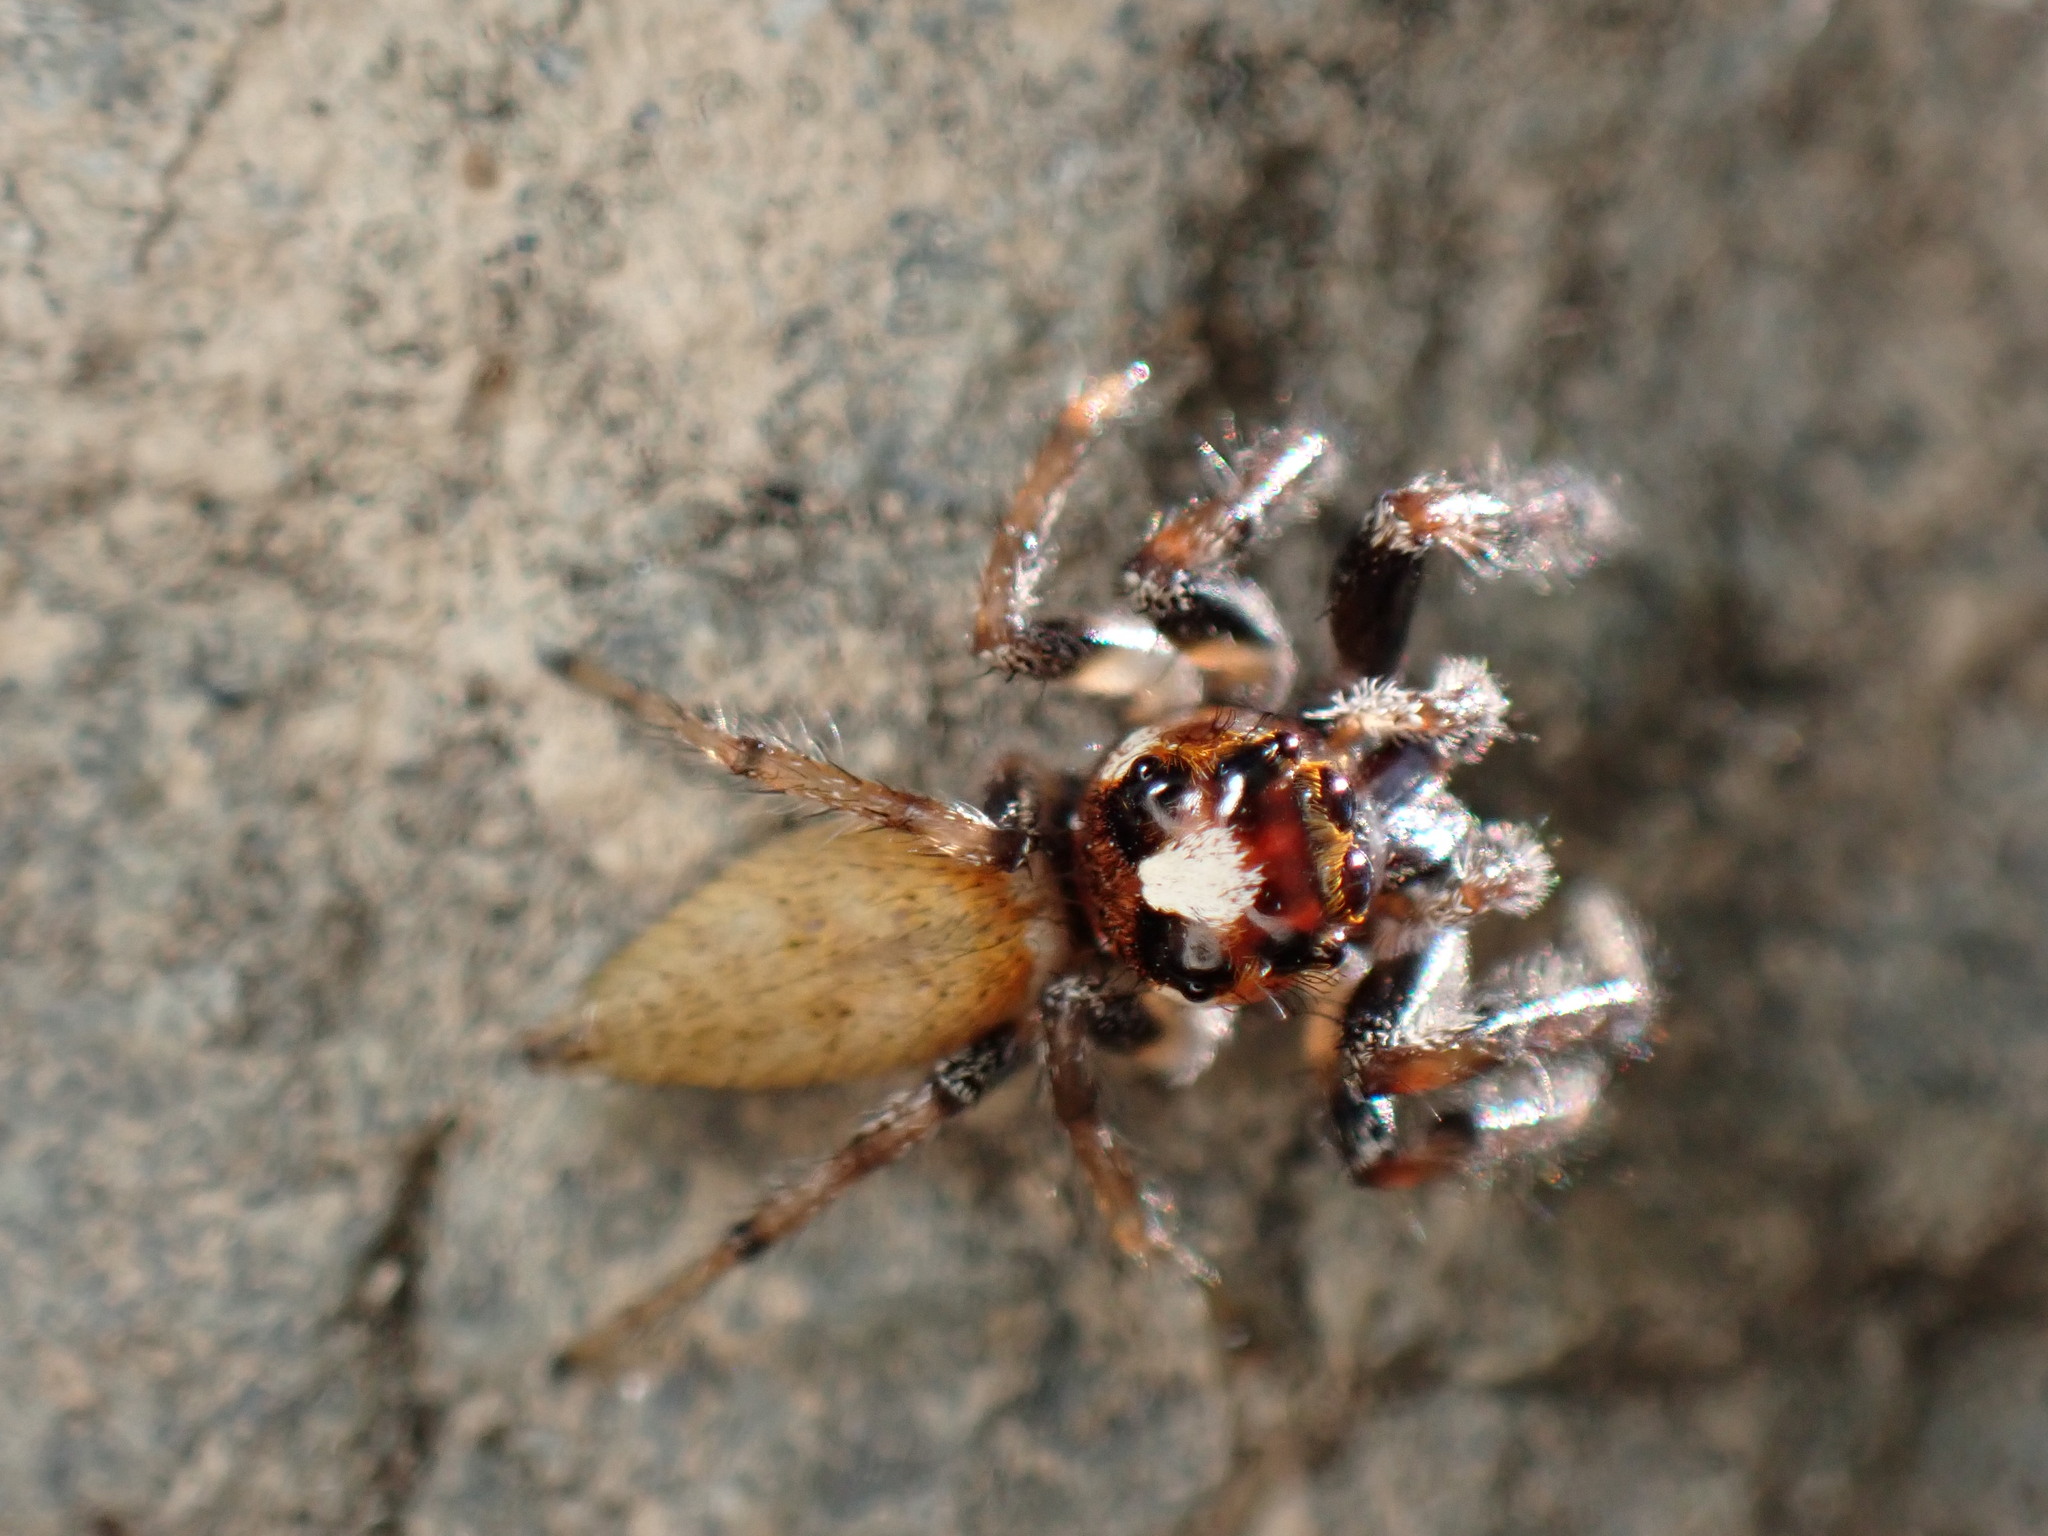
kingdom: Animalia
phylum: Arthropoda
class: Arachnida
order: Araneae
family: Salticidae
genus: Colonus
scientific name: Colonus hesperus
